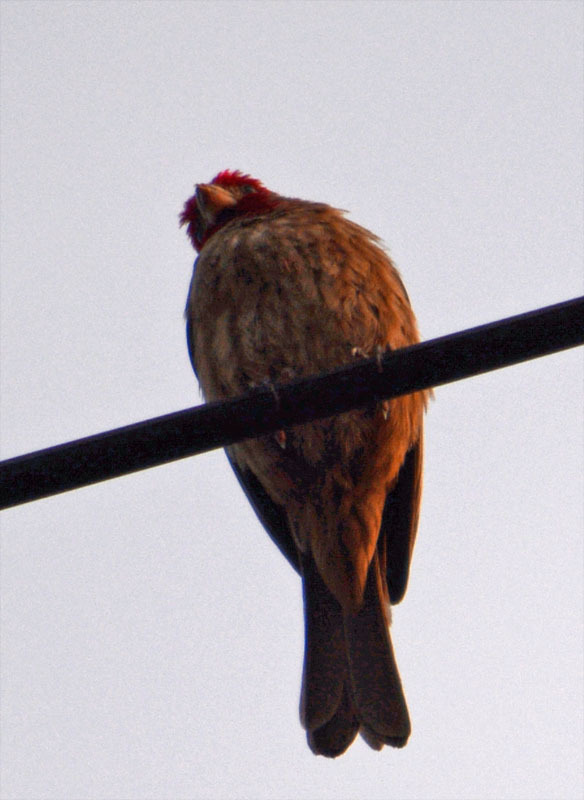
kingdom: Animalia
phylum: Chordata
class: Aves
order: Passeriformes
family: Fringillidae
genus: Haemorhous
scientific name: Haemorhous mexicanus
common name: House finch
